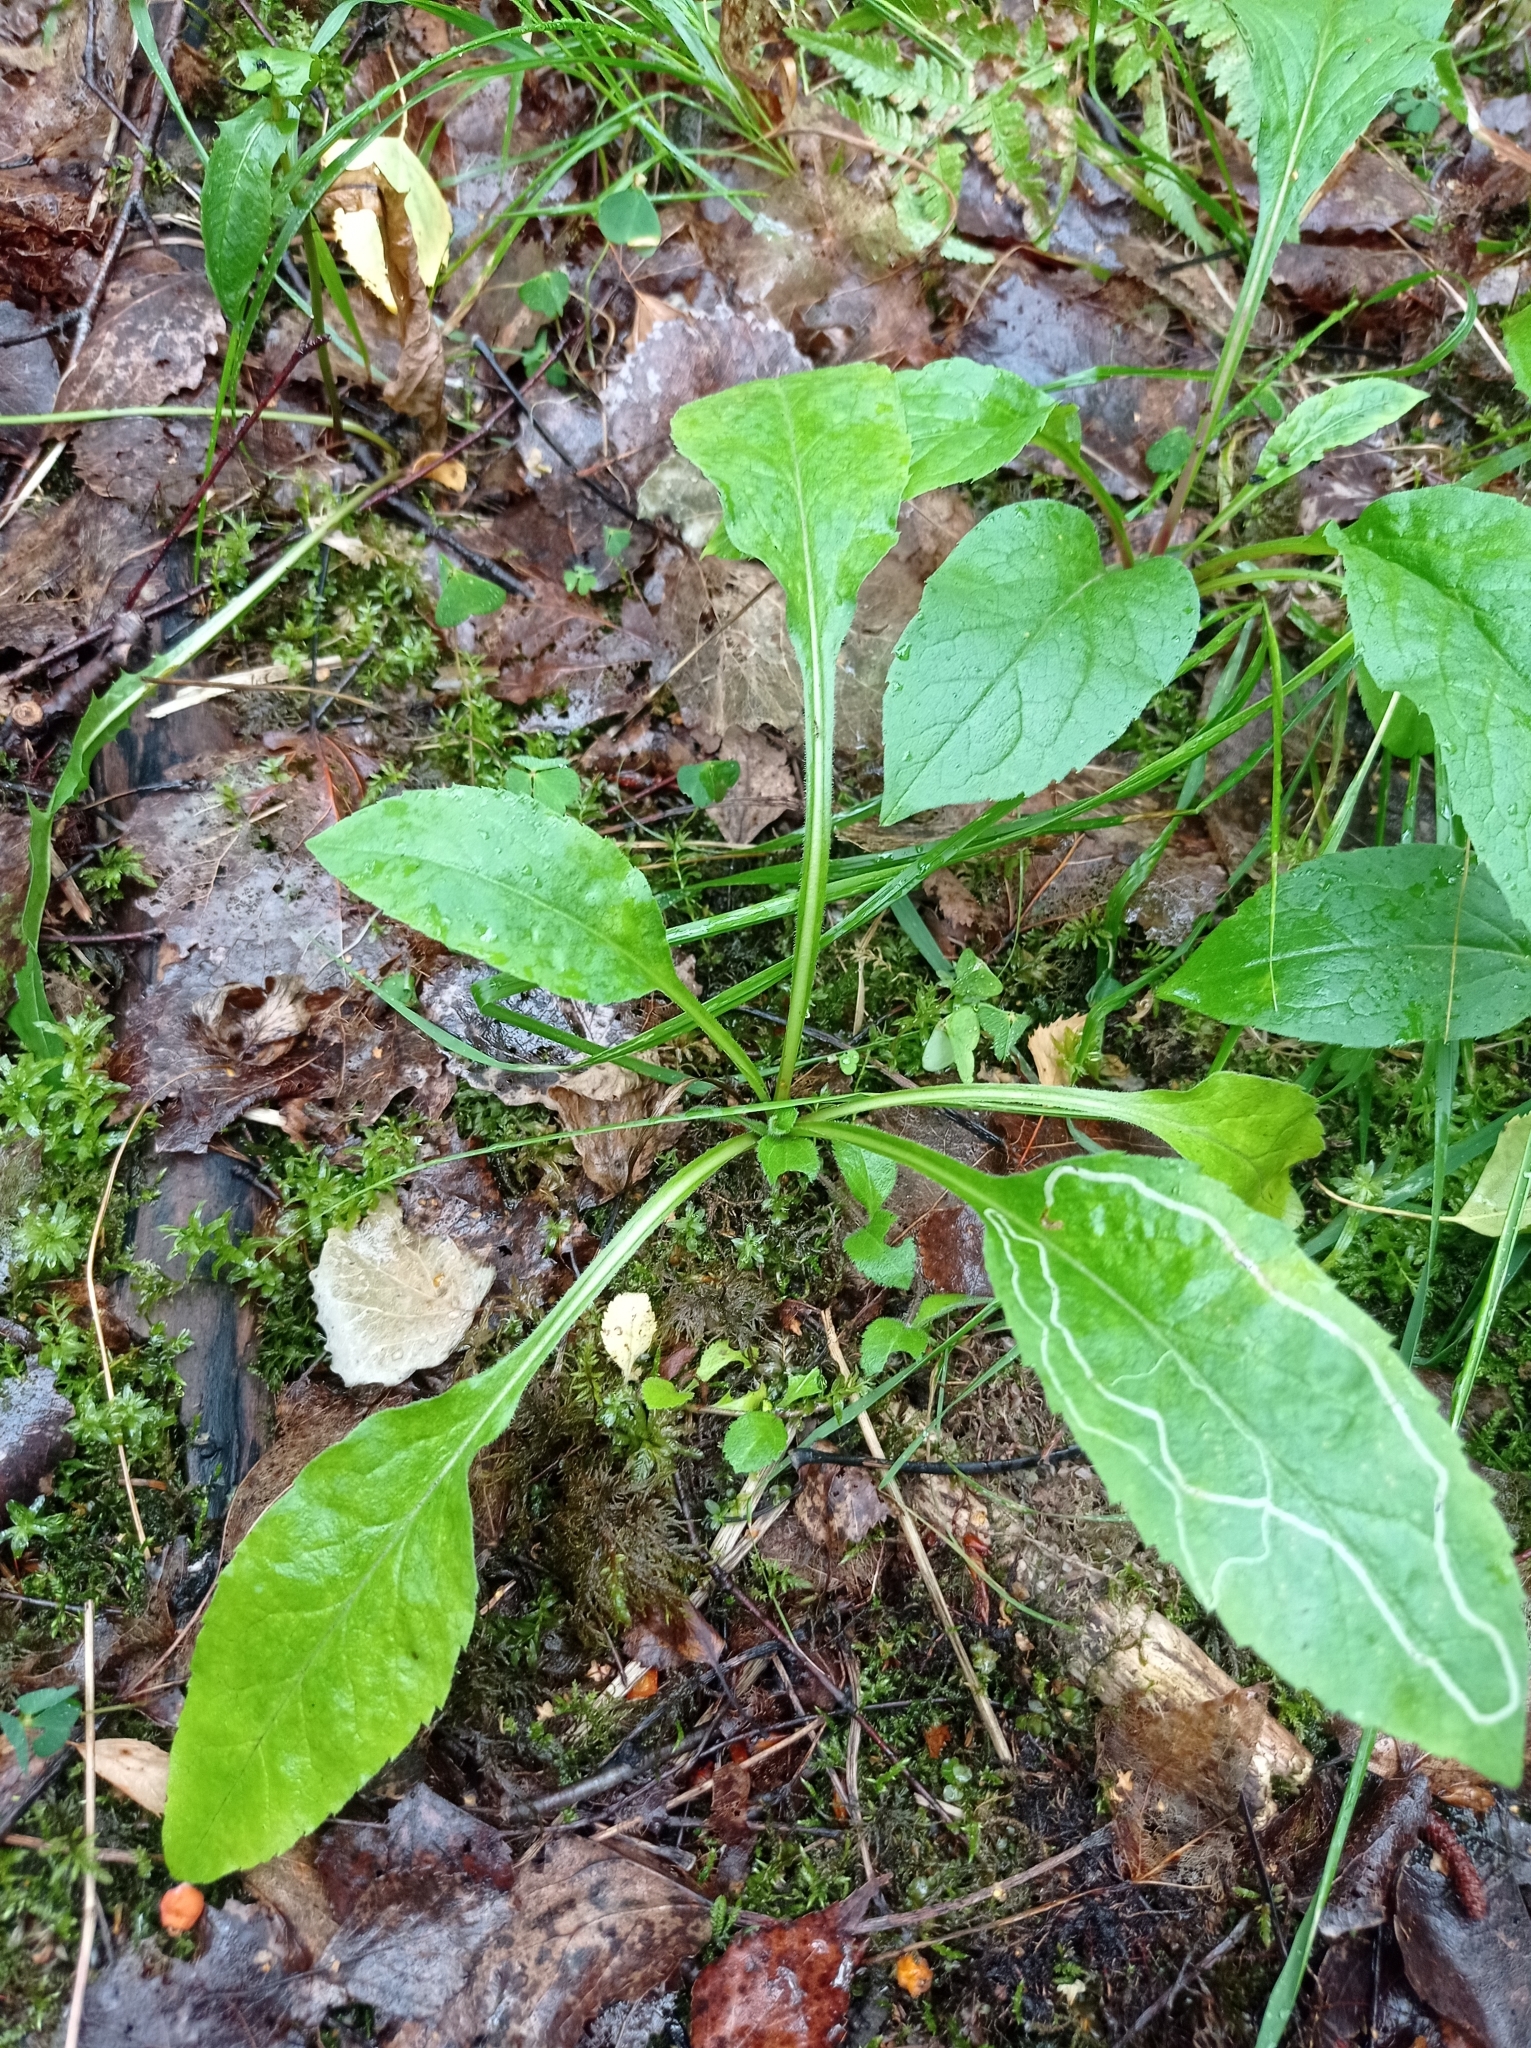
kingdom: Plantae
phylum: Tracheophyta
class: Magnoliopsida
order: Asterales
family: Asteraceae
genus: Solidago
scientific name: Solidago virgaurea
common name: Goldenrod
